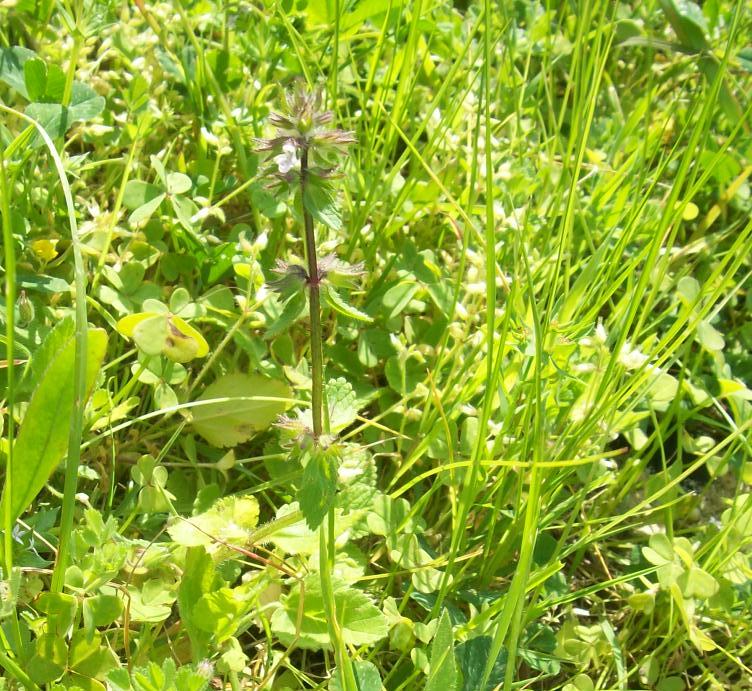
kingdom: Plantae
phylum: Tracheophyta
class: Magnoliopsida
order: Lamiales
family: Lamiaceae
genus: Stachys
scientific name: Stachys arvensis
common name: Field woundwort
